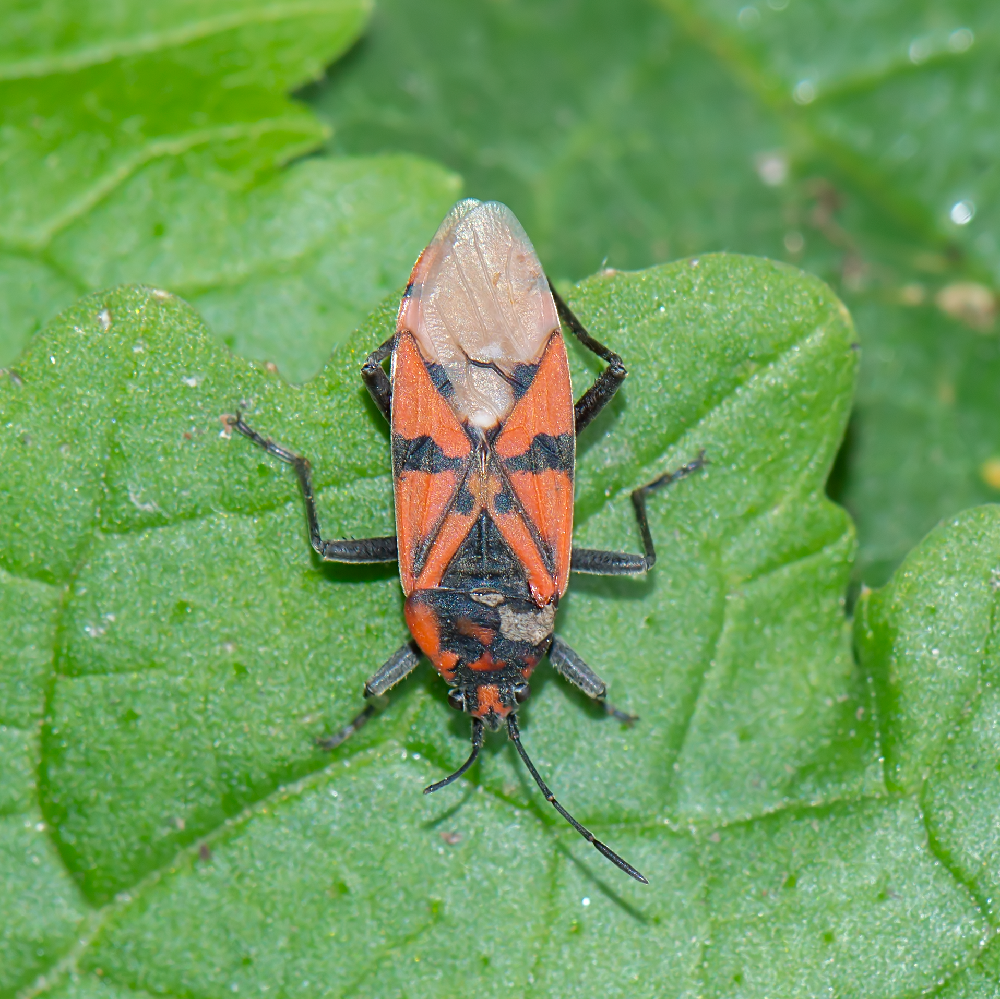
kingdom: Animalia
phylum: Arthropoda
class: Insecta
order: Hemiptera
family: Lygaeidae
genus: Spilostethus
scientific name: Spilostethus pandurus
